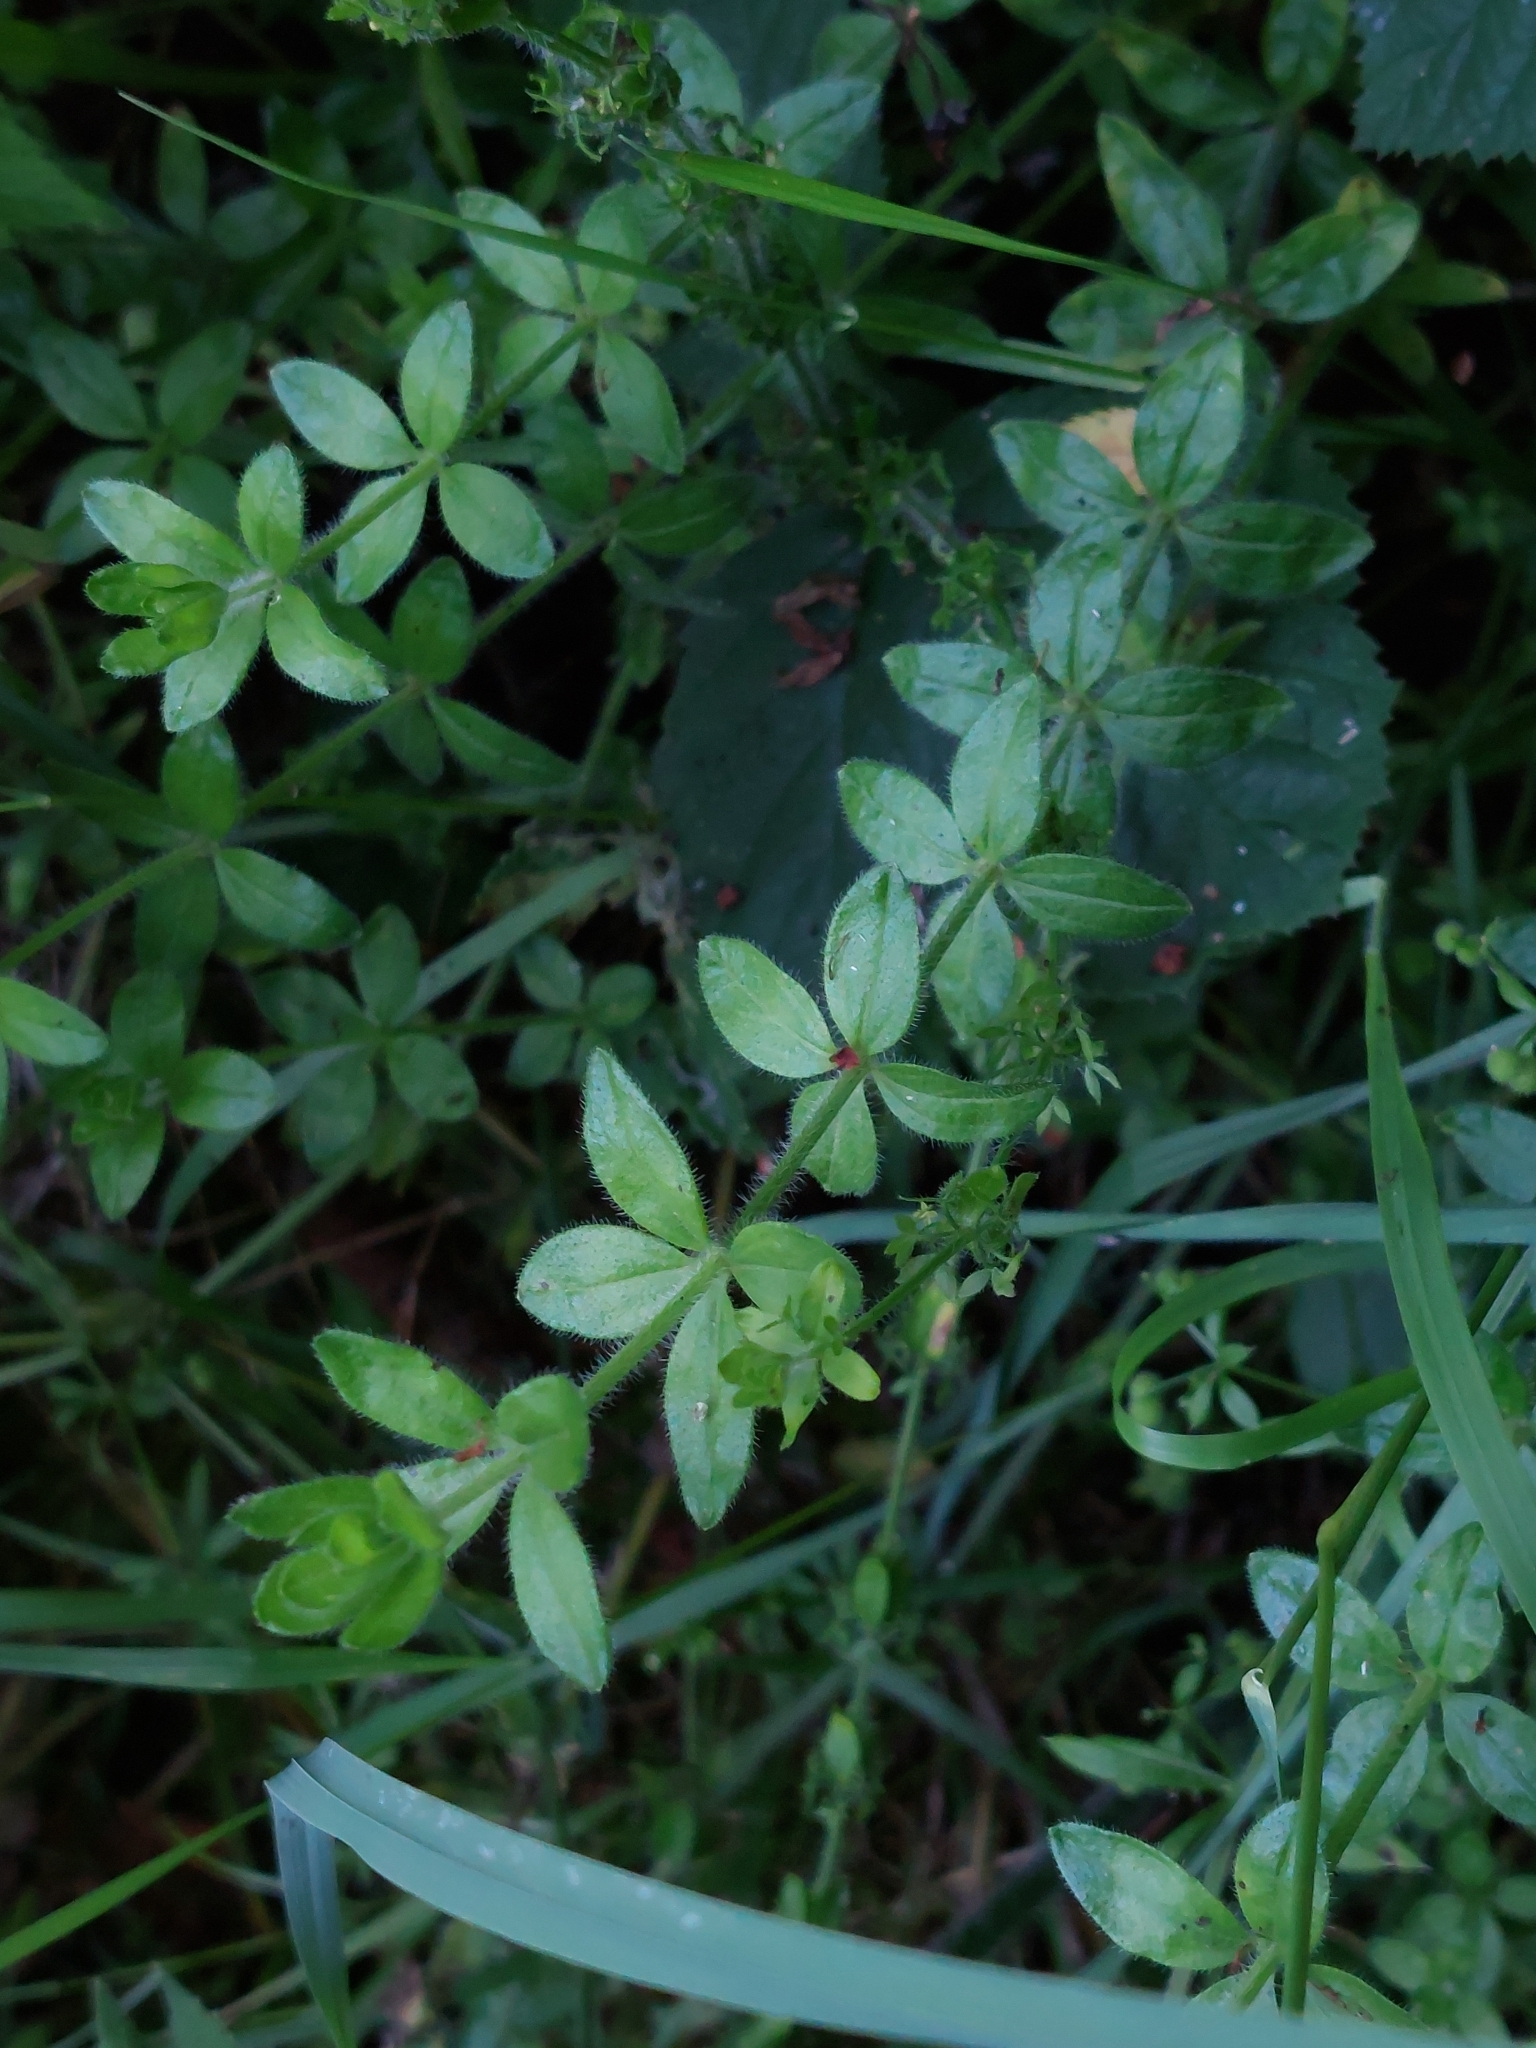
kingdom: Plantae
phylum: Tracheophyta
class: Magnoliopsida
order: Gentianales
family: Rubiaceae
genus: Cruciata
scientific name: Cruciata laevipes
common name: Crosswort
